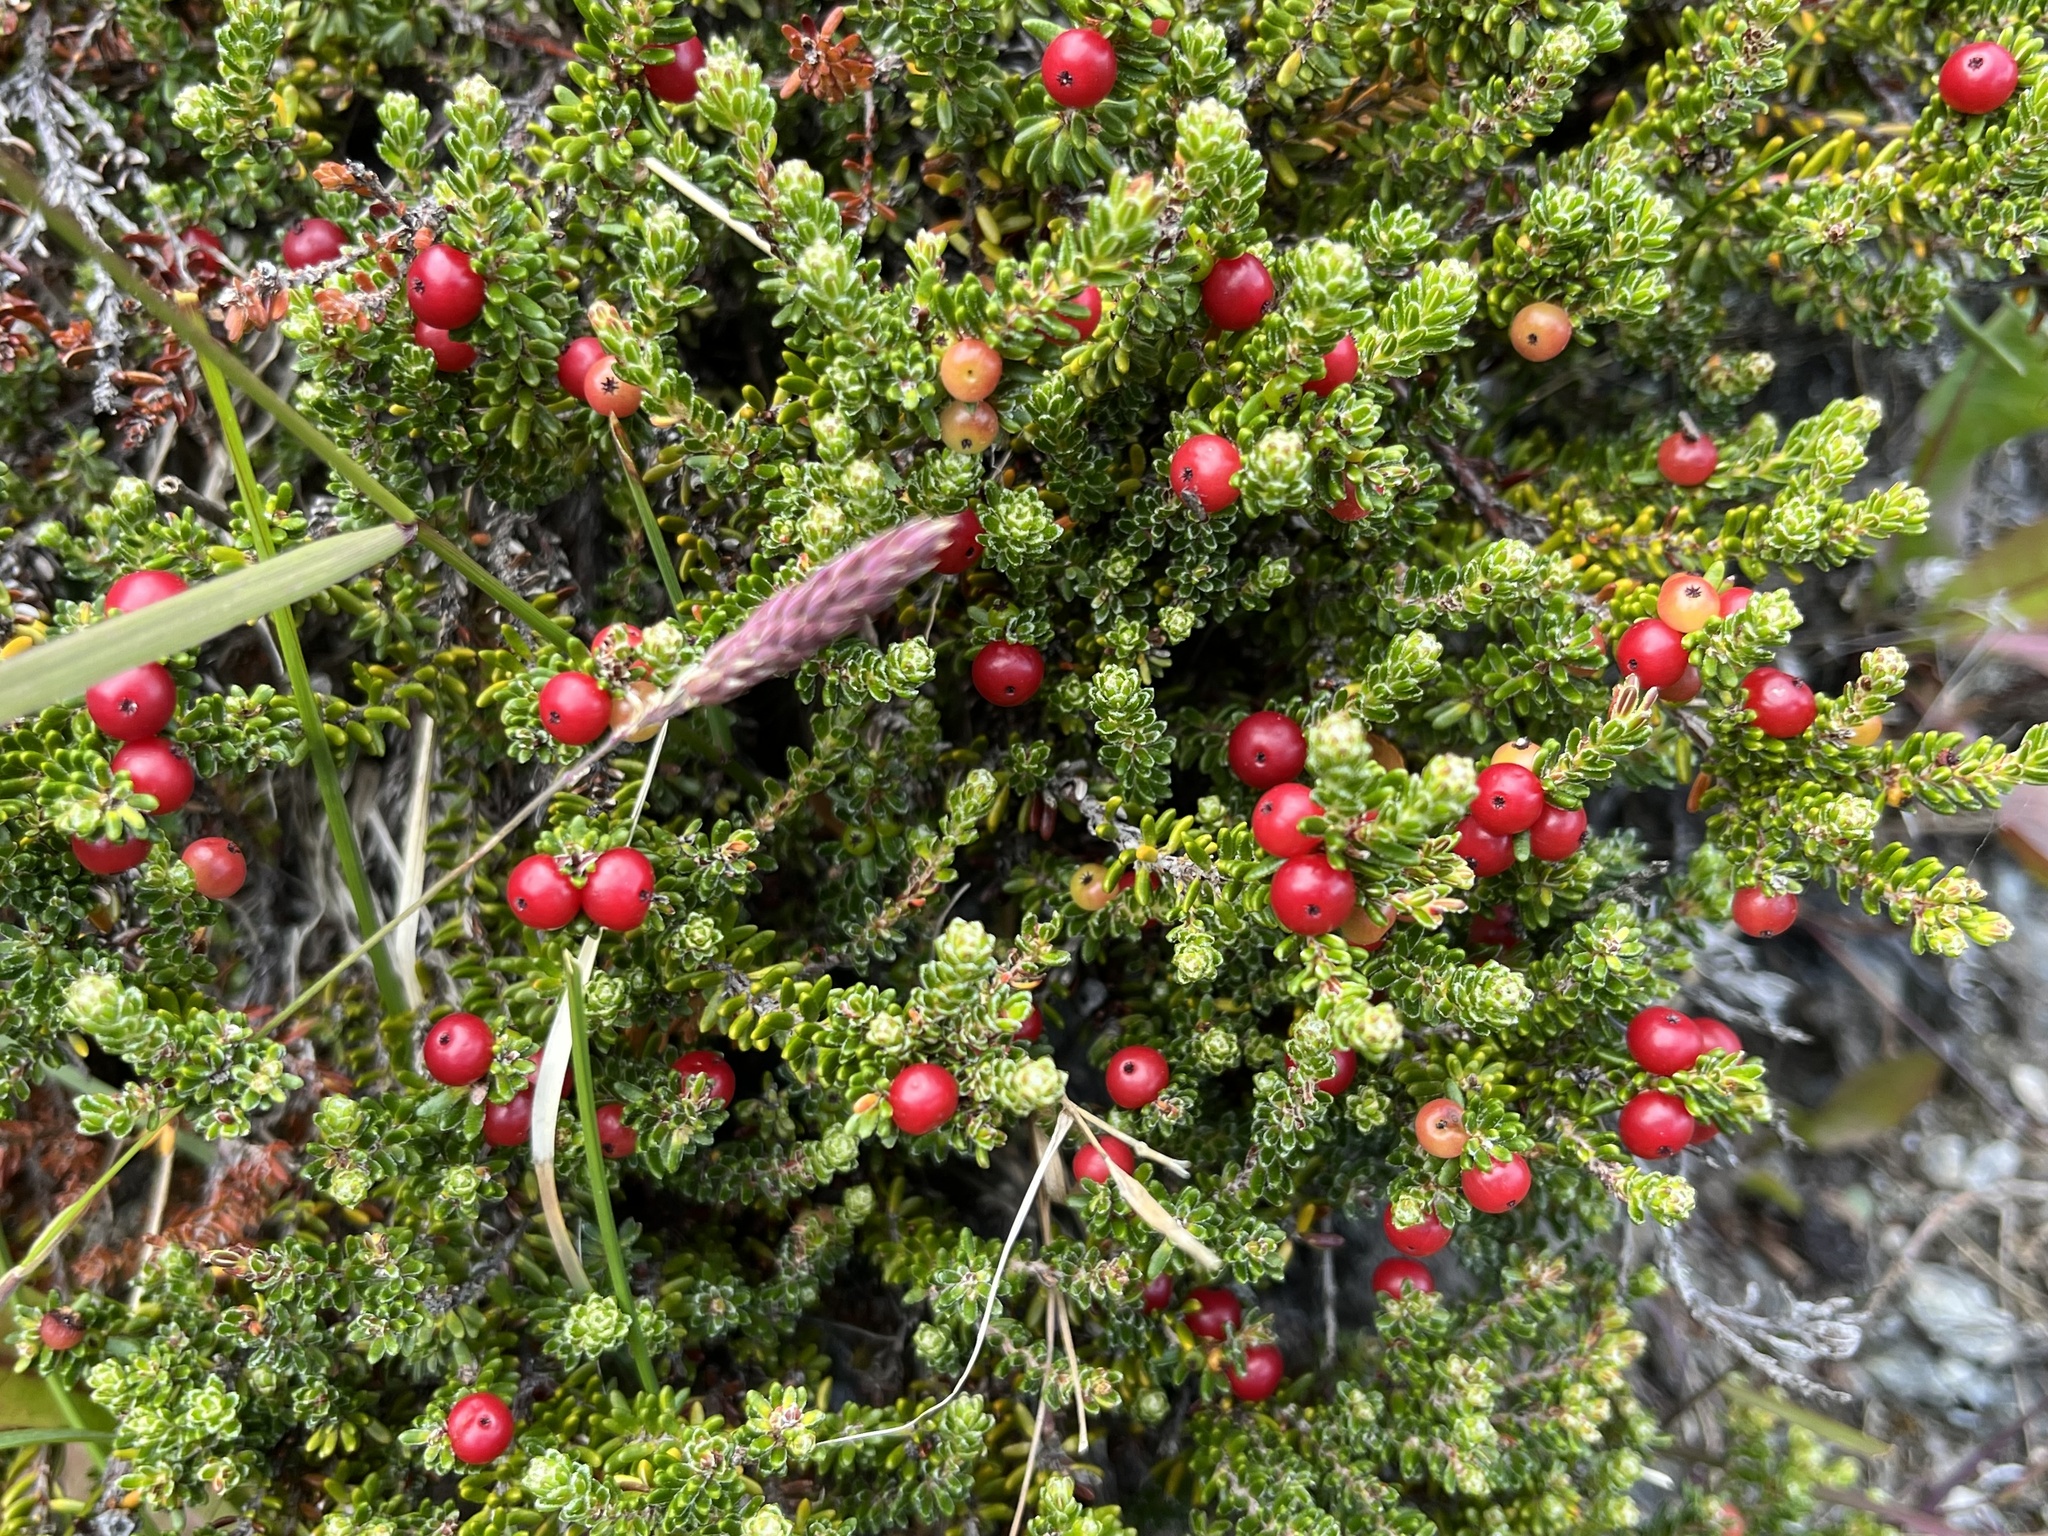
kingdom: Plantae
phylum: Tracheophyta
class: Magnoliopsida
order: Ericales
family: Ericaceae
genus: Empetrum
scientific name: Empetrum rubrum
